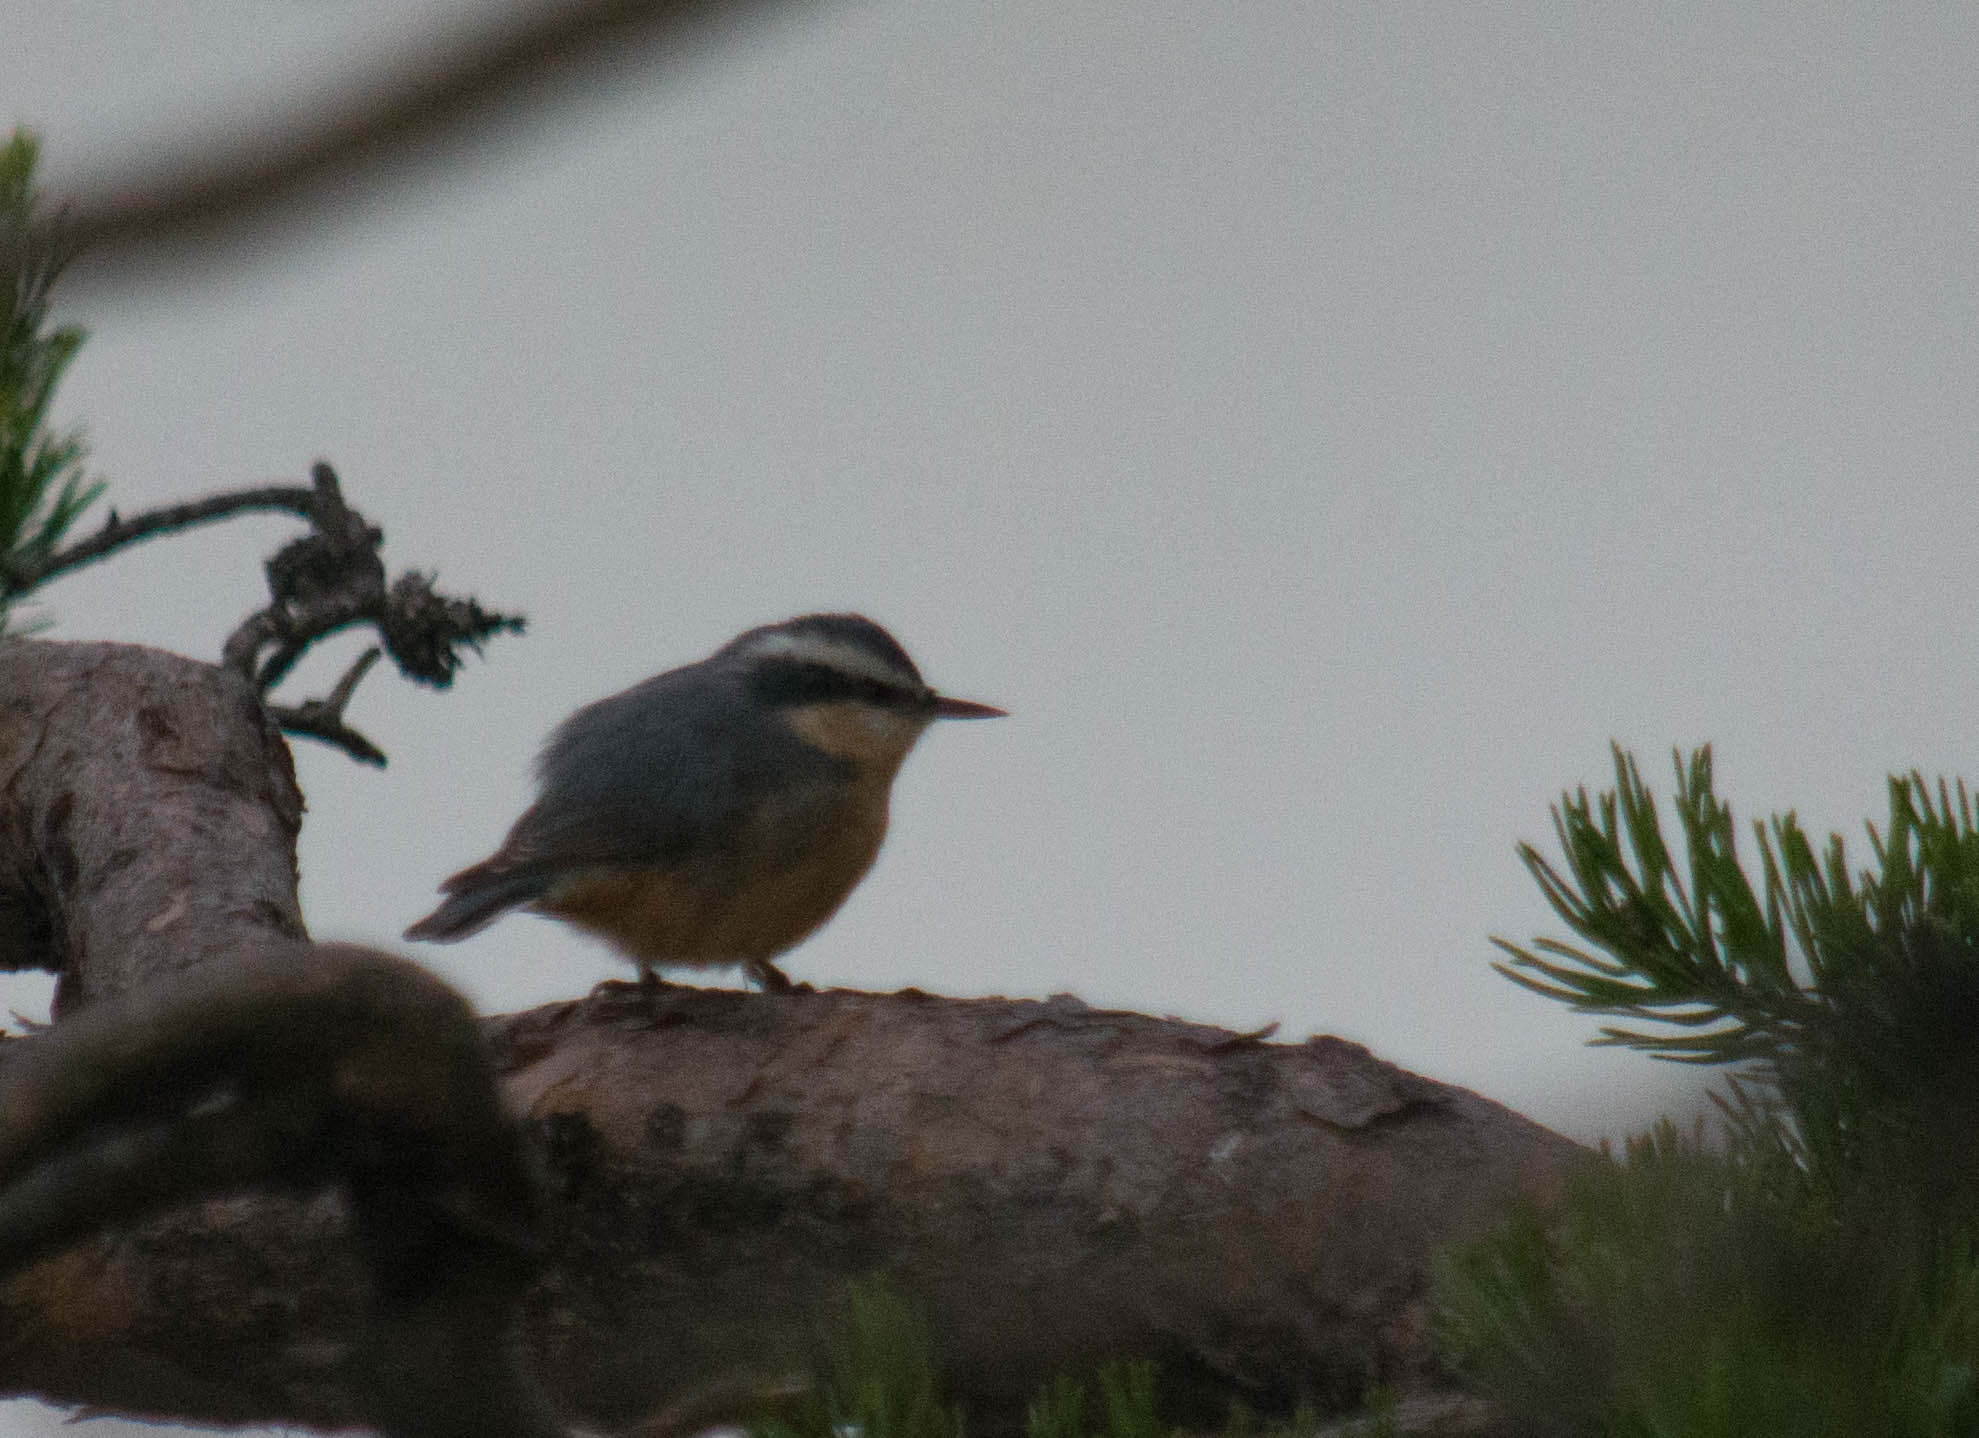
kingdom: Animalia
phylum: Chordata
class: Aves
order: Passeriformes
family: Sittidae
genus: Sitta
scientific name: Sitta canadensis
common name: Red-breasted nuthatch
